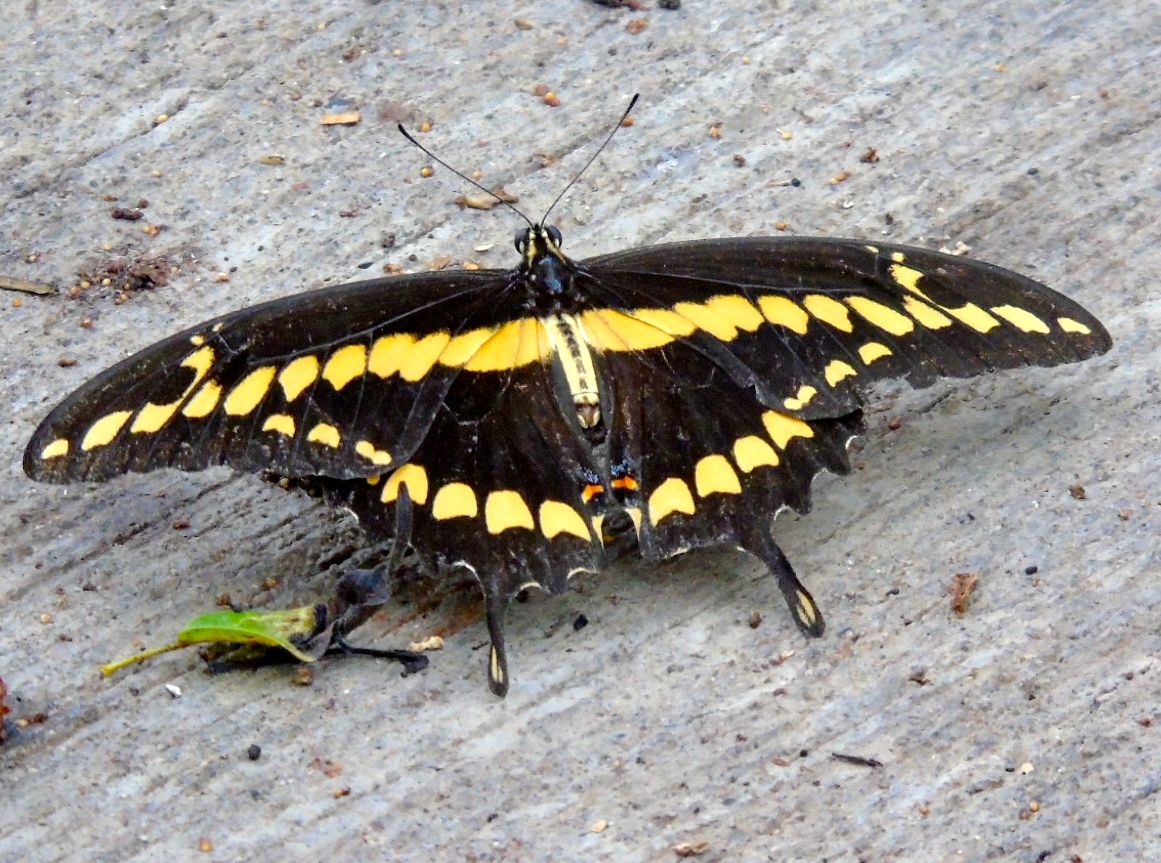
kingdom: Animalia
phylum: Arthropoda
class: Insecta
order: Lepidoptera
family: Papilionidae
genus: Papilio
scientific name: Papilio rumiko
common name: Western giant swallowtail
